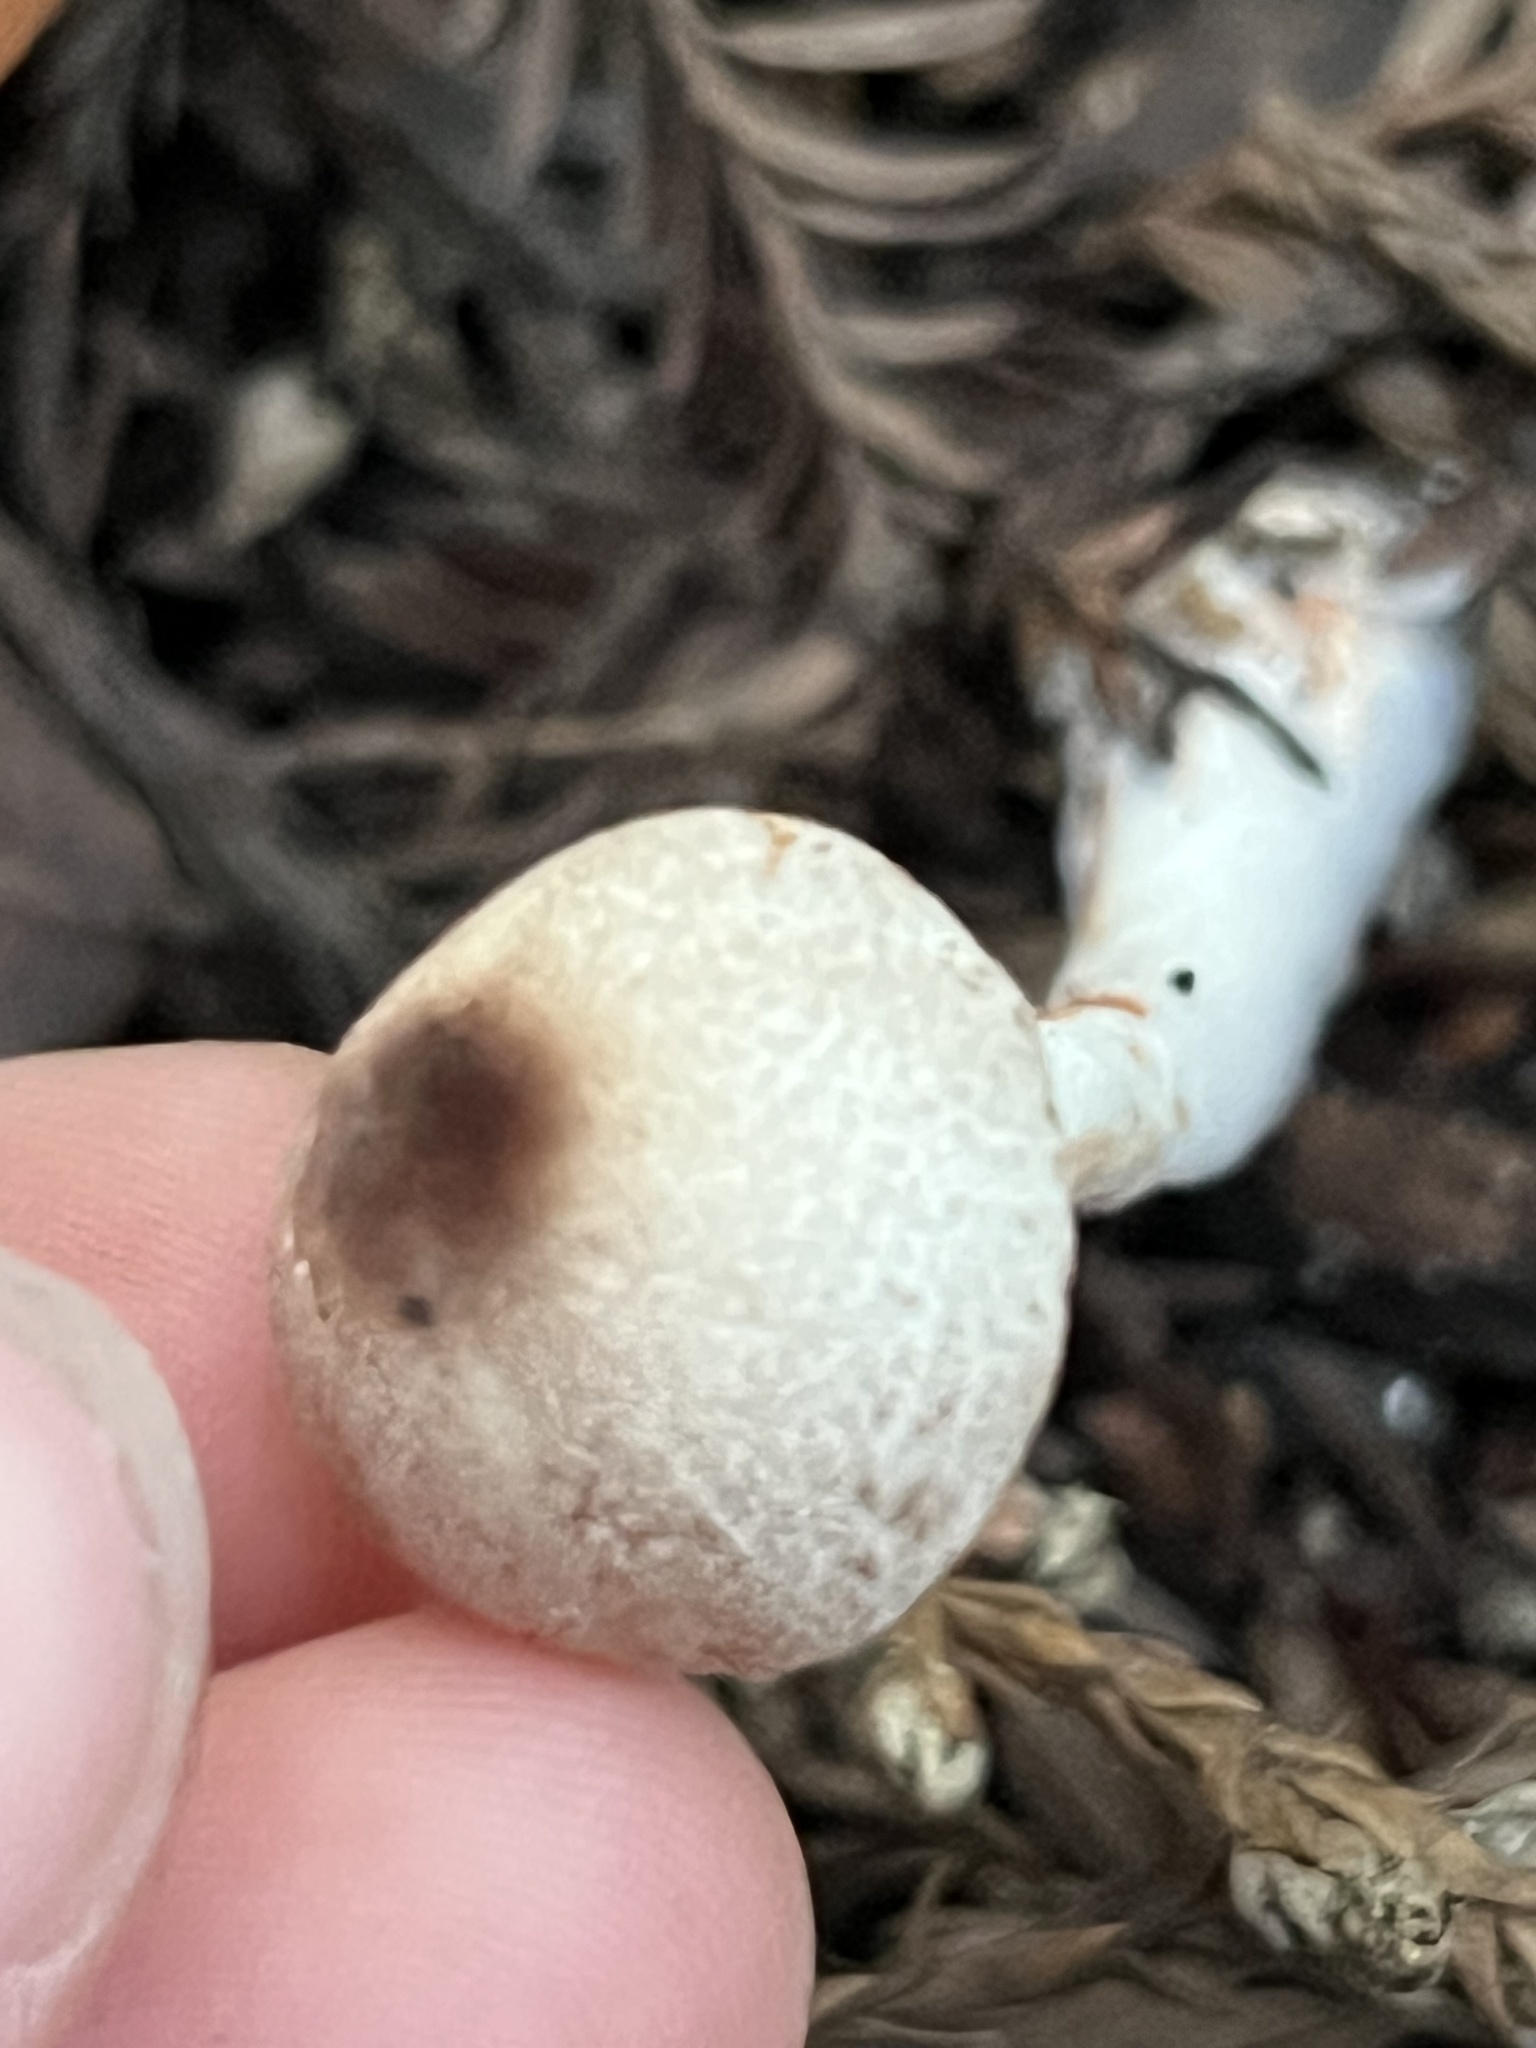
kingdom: Fungi
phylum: Basidiomycota
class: Agaricomycetes
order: Agaricales
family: Agaricaceae
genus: Lepiota
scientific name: Lepiota flammeotincta
